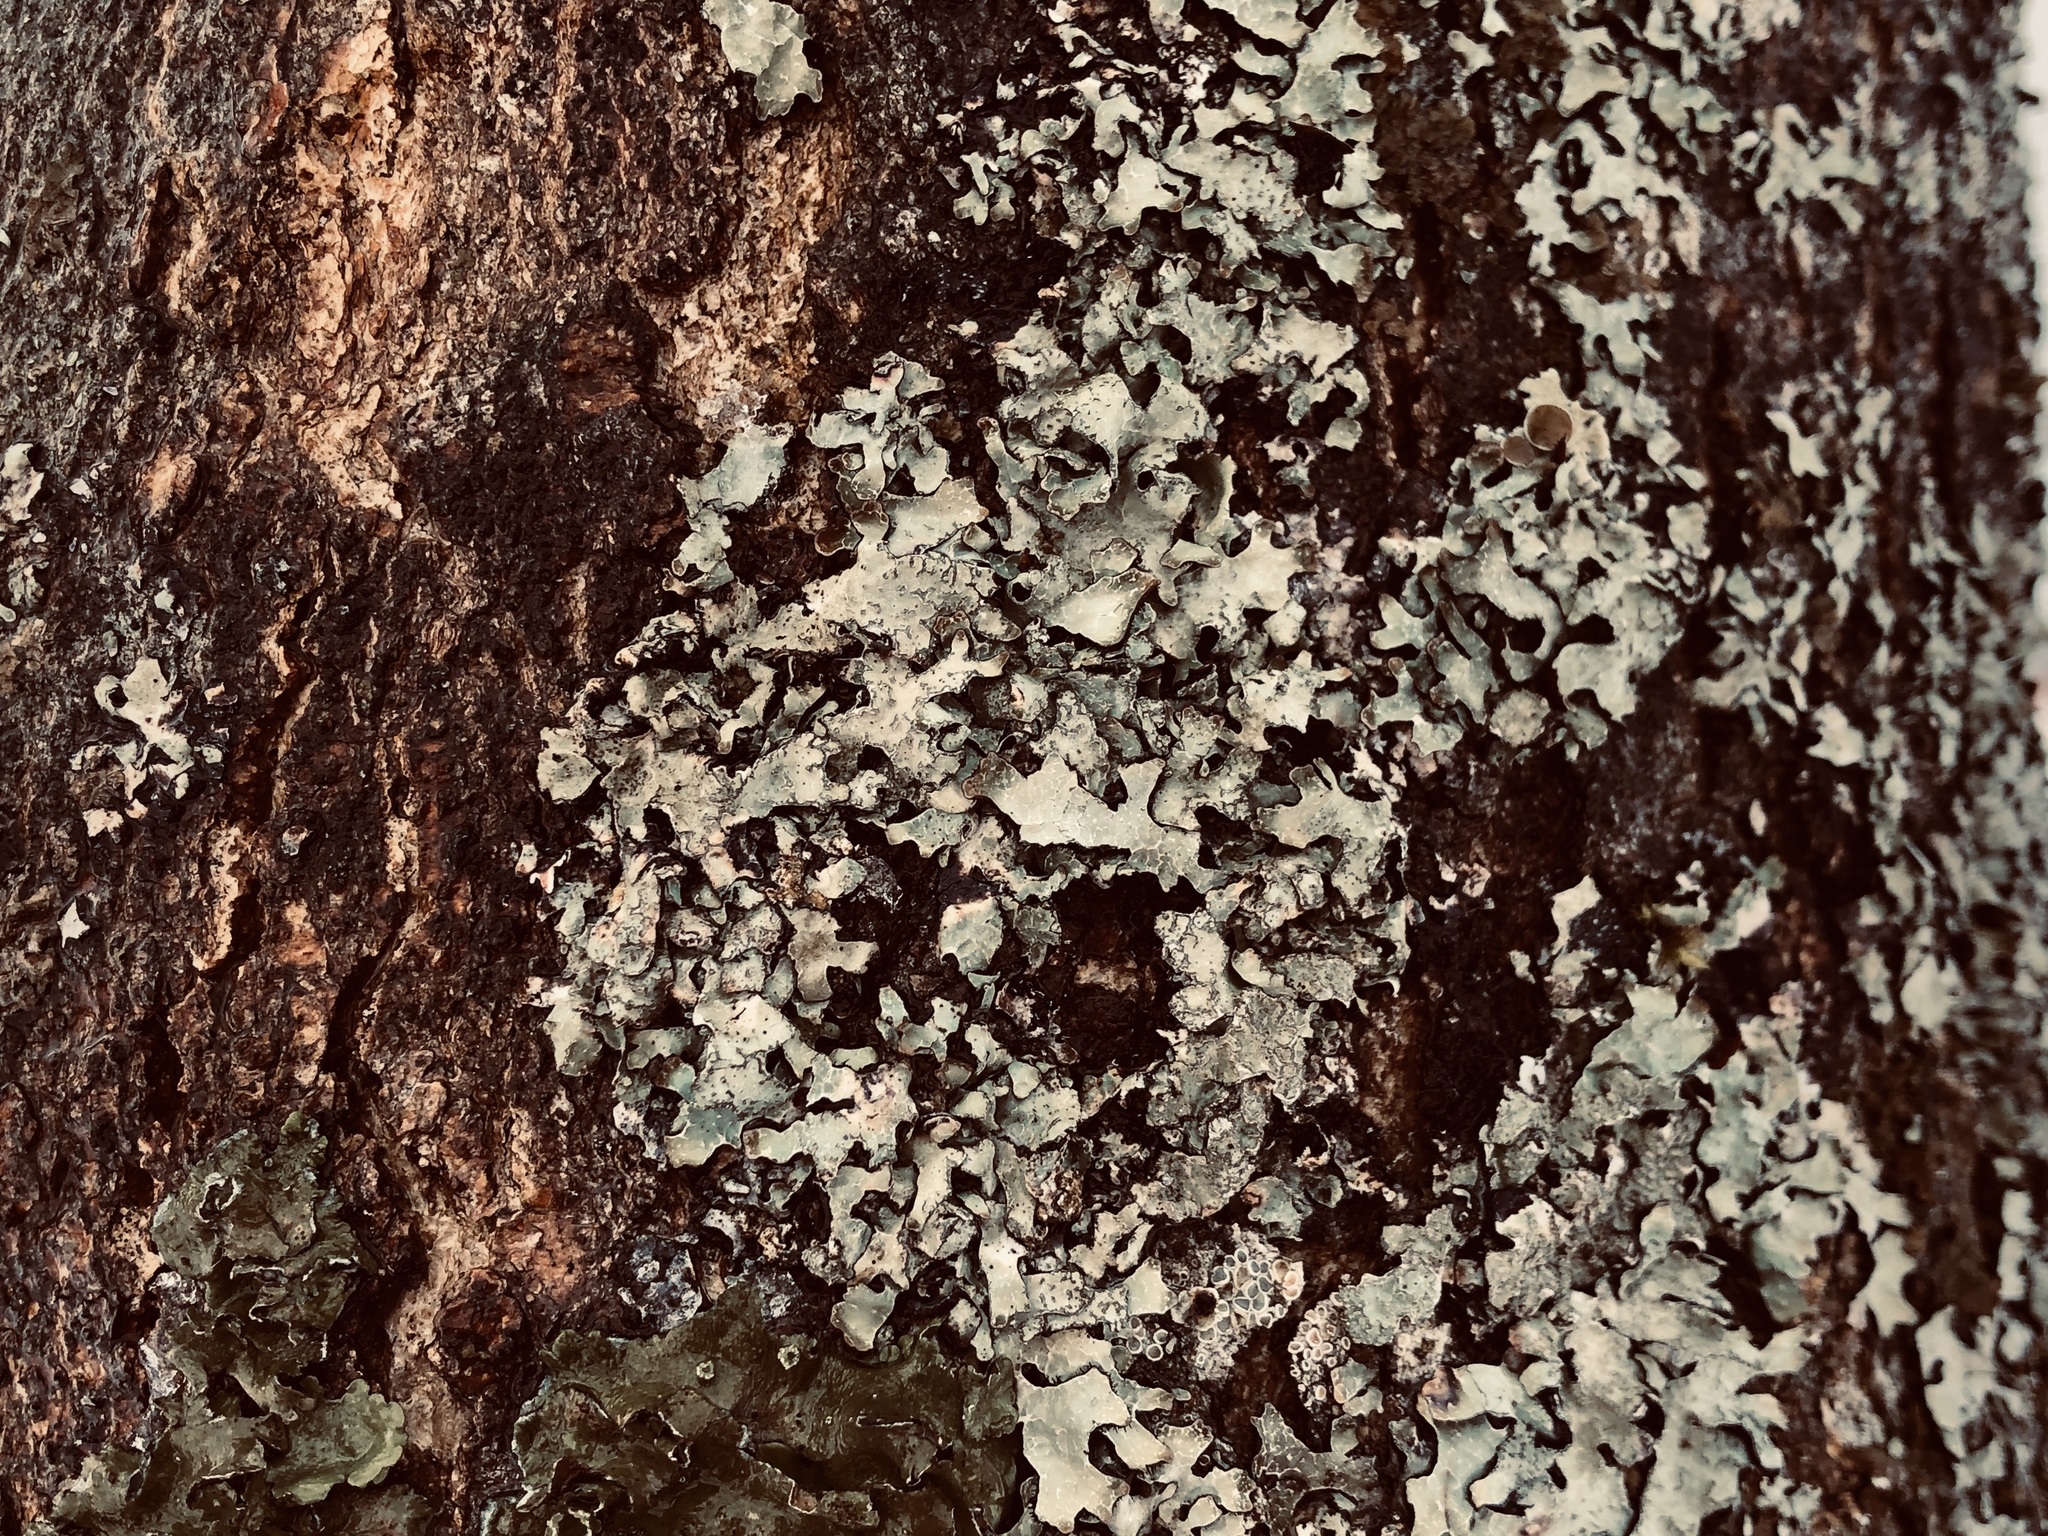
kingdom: Fungi
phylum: Ascomycota
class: Lecanoromycetes
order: Lecanorales
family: Parmeliaceae
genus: Parmelia
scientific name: Parmelia sulcata
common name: Netted shield lichen
